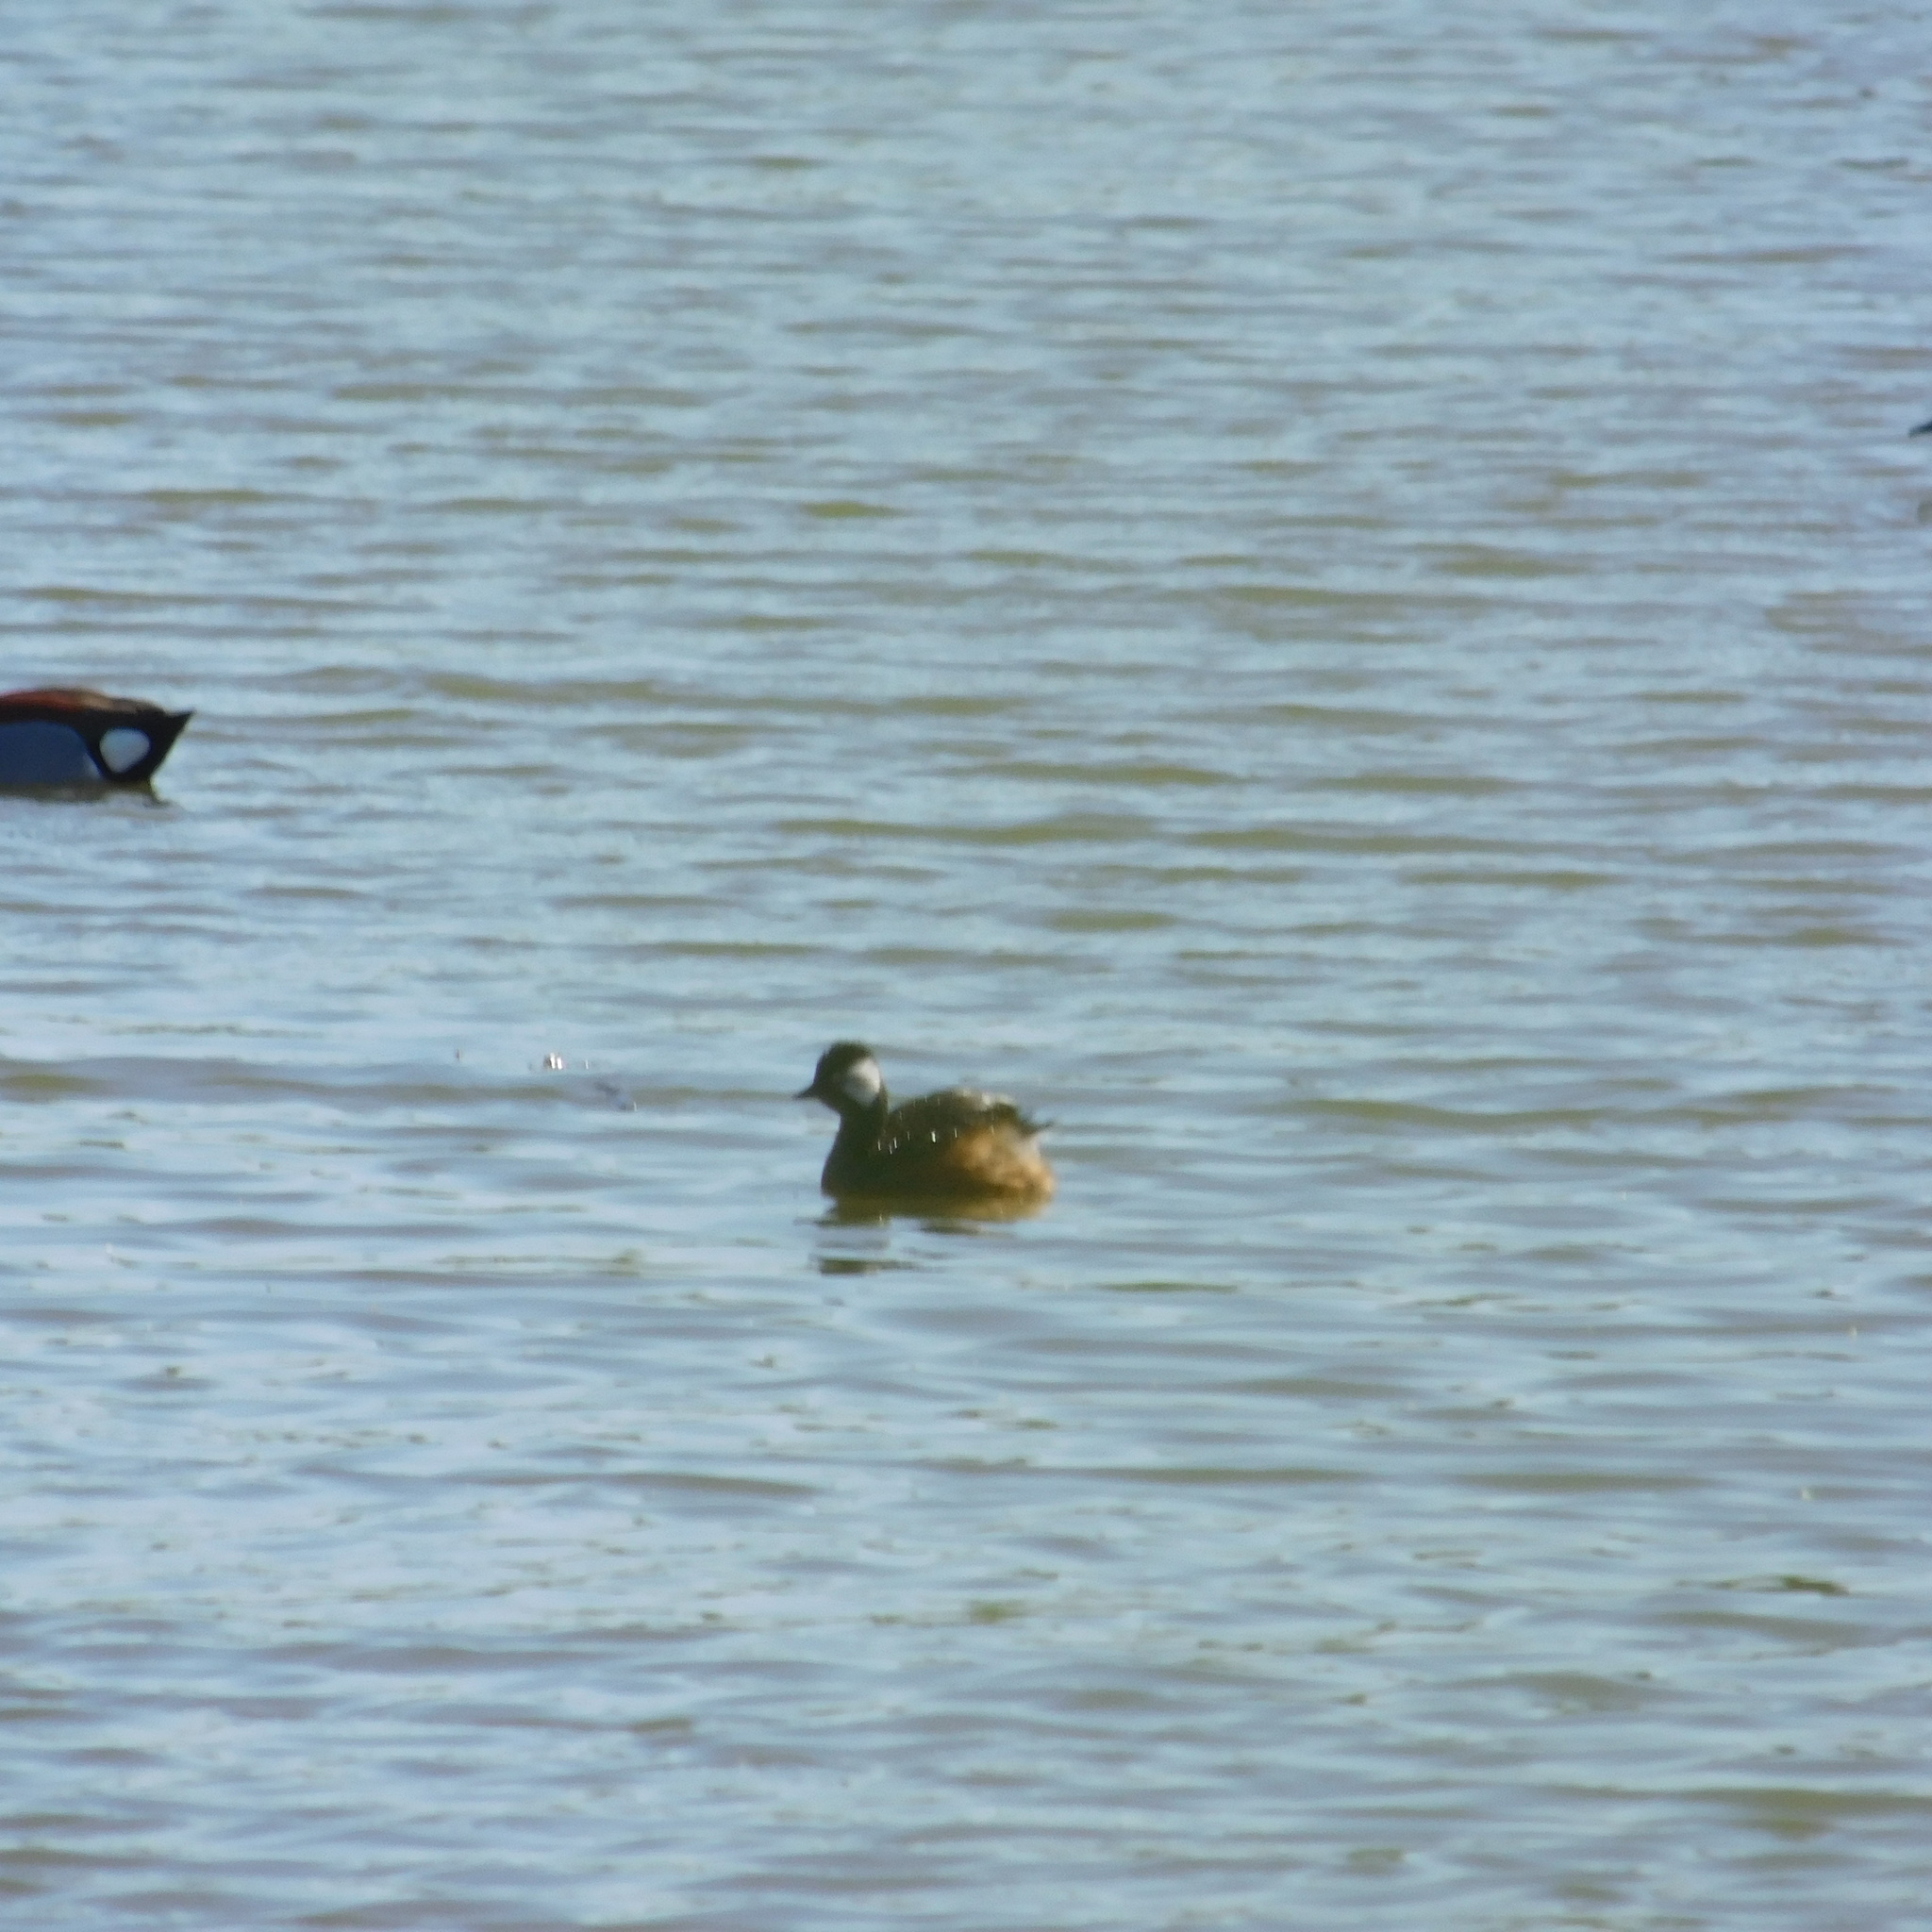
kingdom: Animalia
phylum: Chordata
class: Aves
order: Podicipediformes
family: Podicipedidae
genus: Rollandia
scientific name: Rollandia rolland
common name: White-tufted grebe
